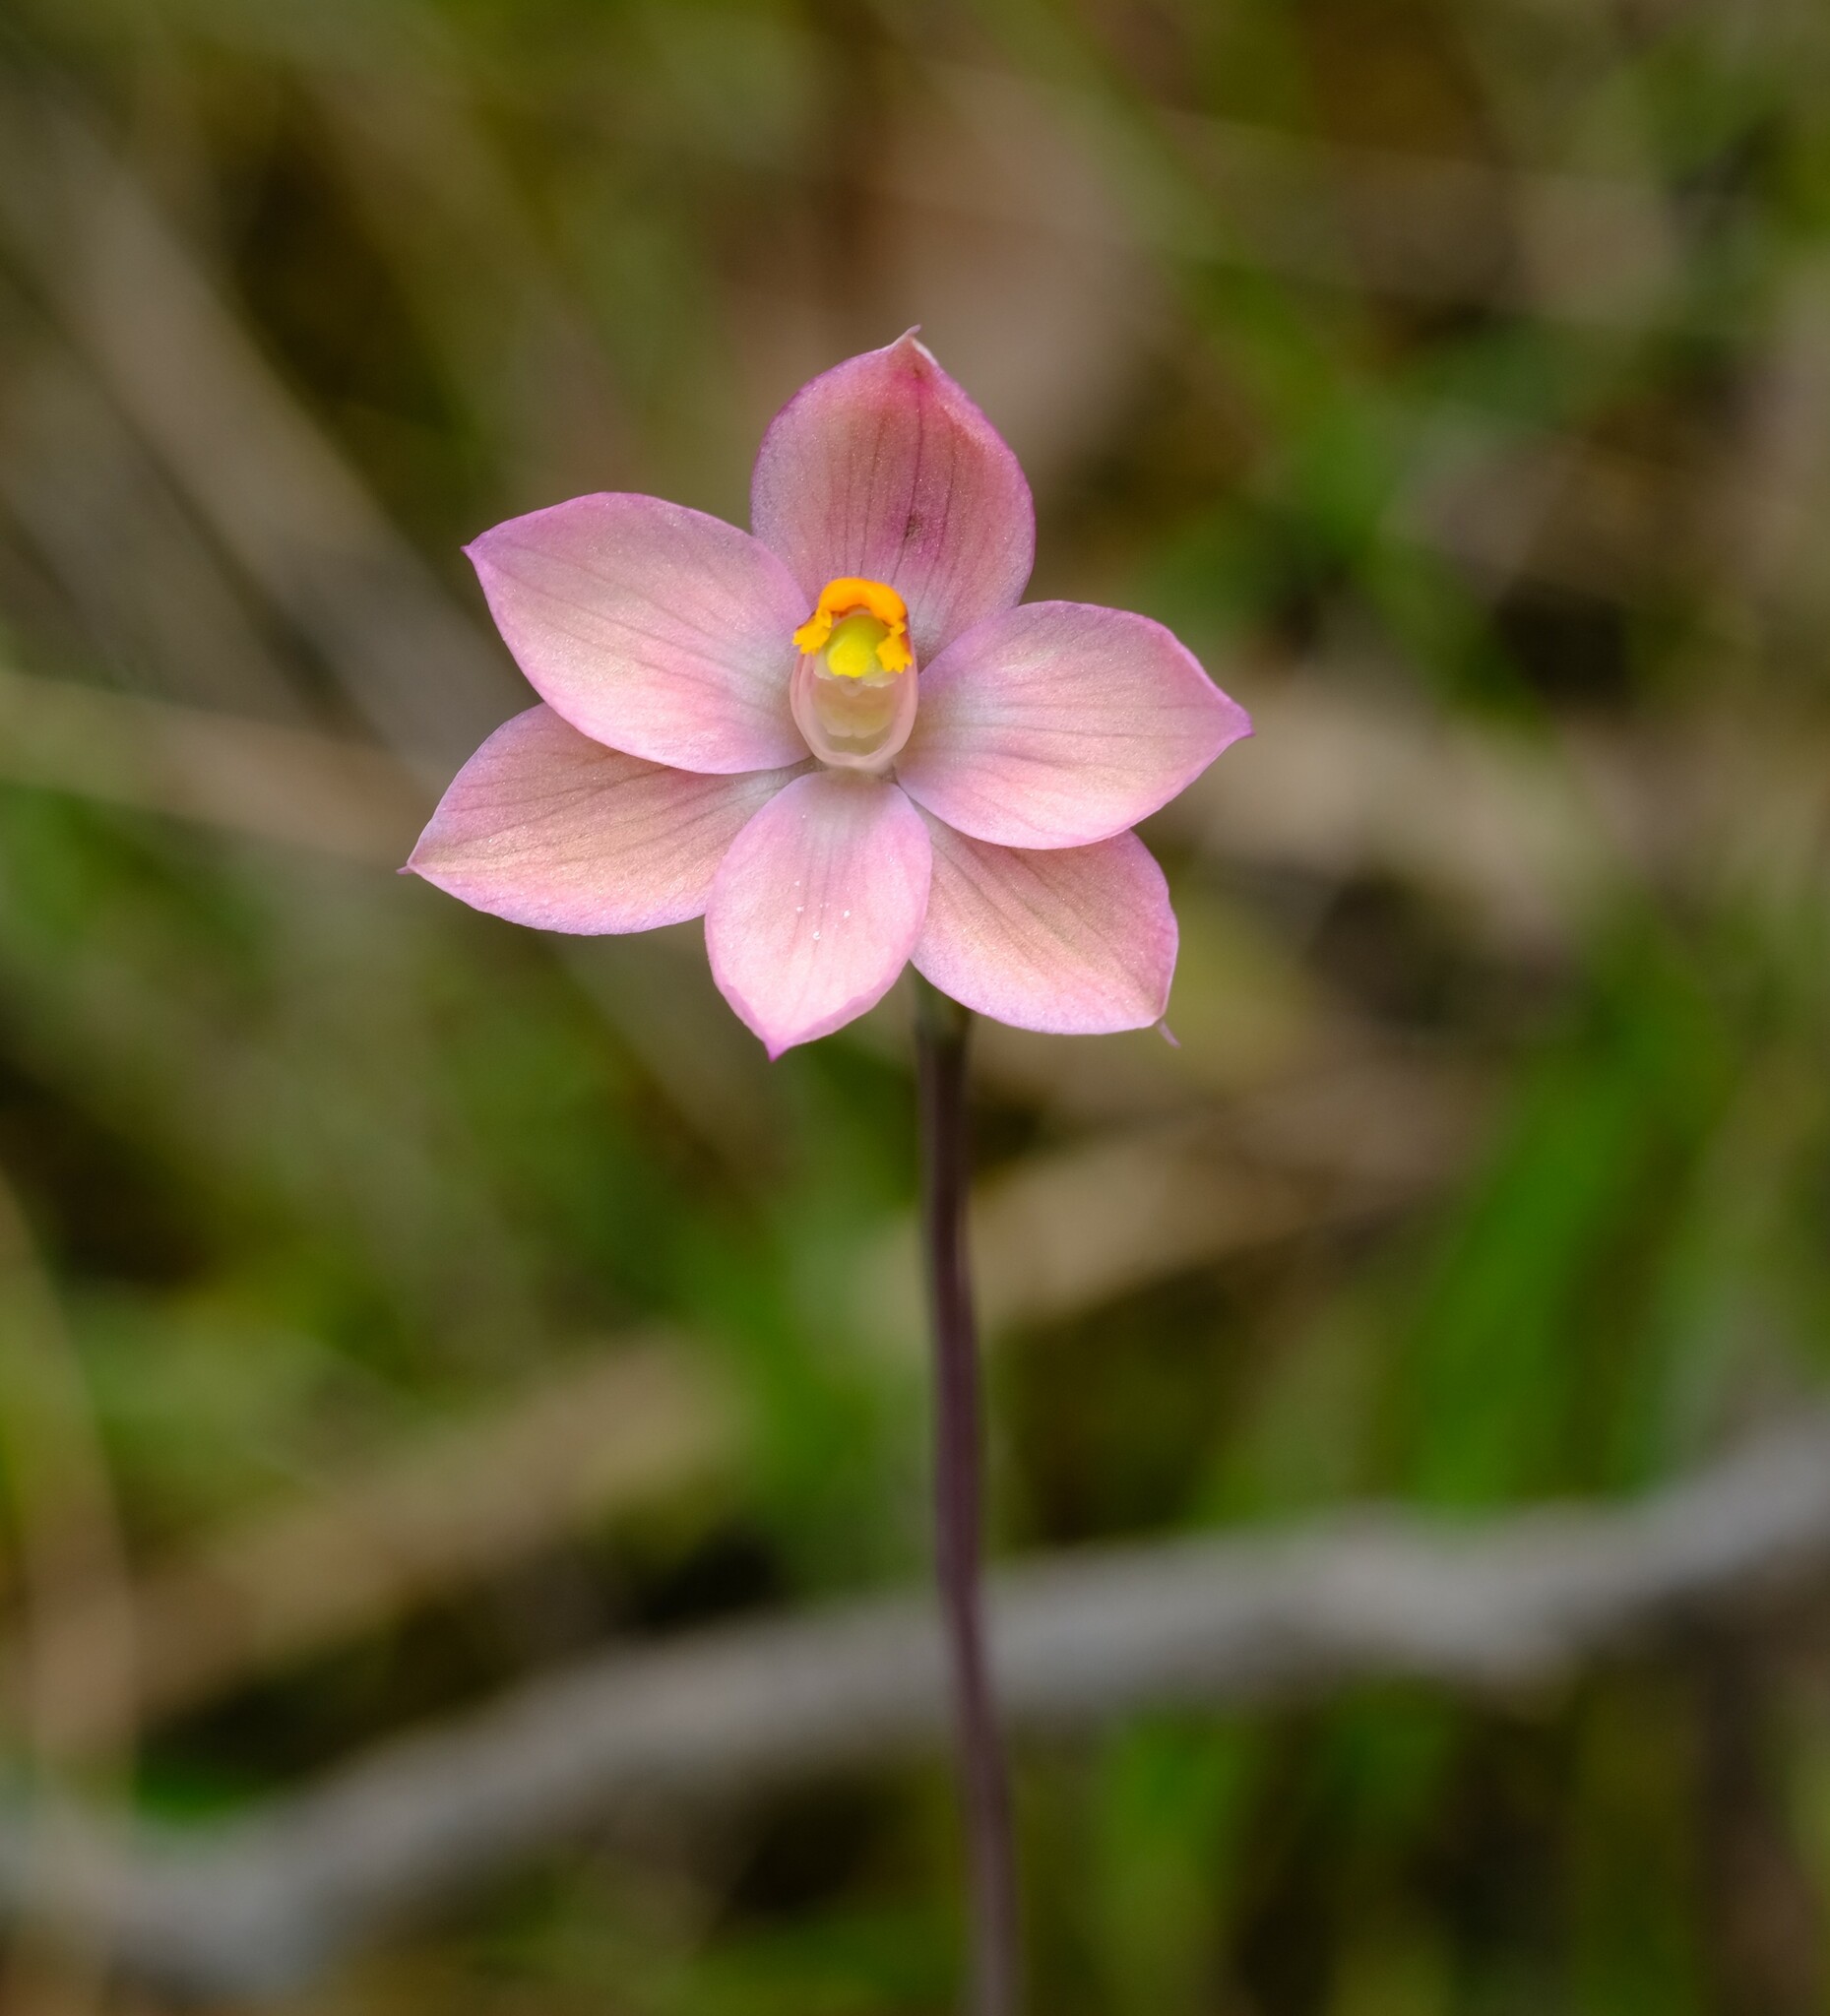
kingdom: Plantae
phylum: Tracheophyta
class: Liliopsida
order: Asparagales
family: Orchidaceae
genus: Thelymitra
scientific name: Thelymitra rubra
